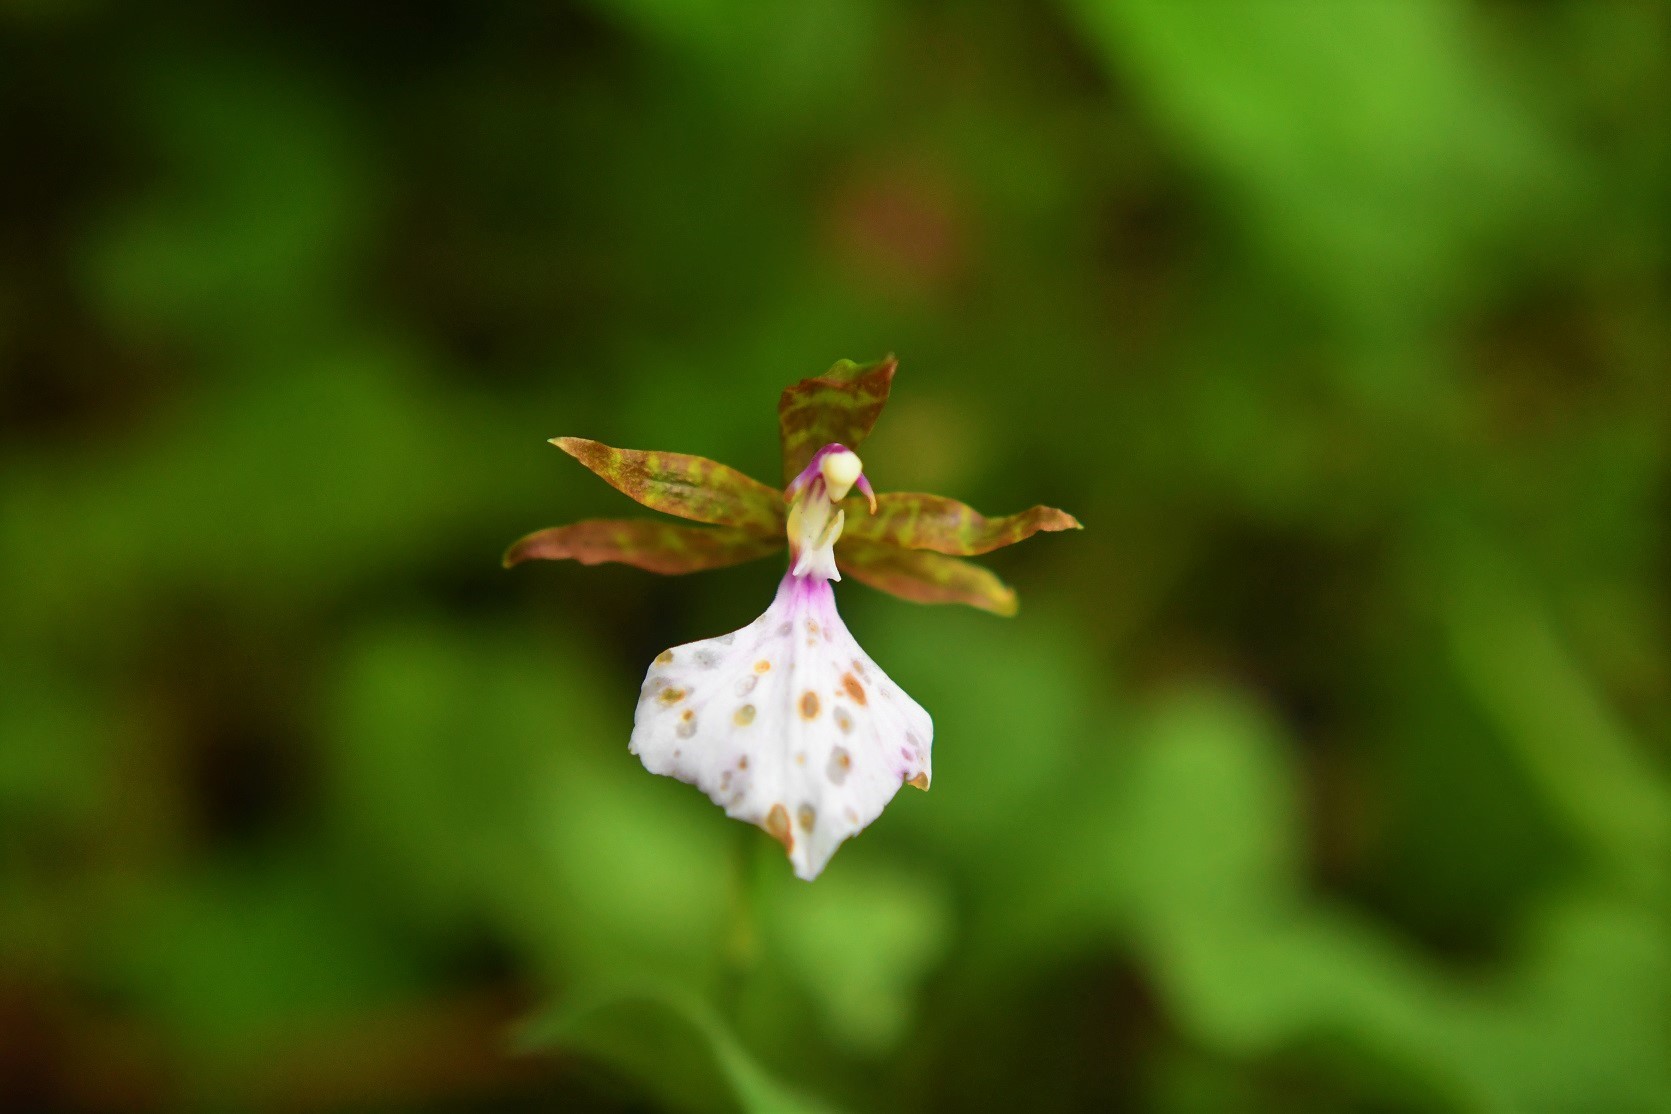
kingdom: Plantae
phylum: Tracheophyta
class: Liliopsida
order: Asparagales
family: Orchidaceae
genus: Rhynchostele
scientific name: Rhynchostele bictoniensis
